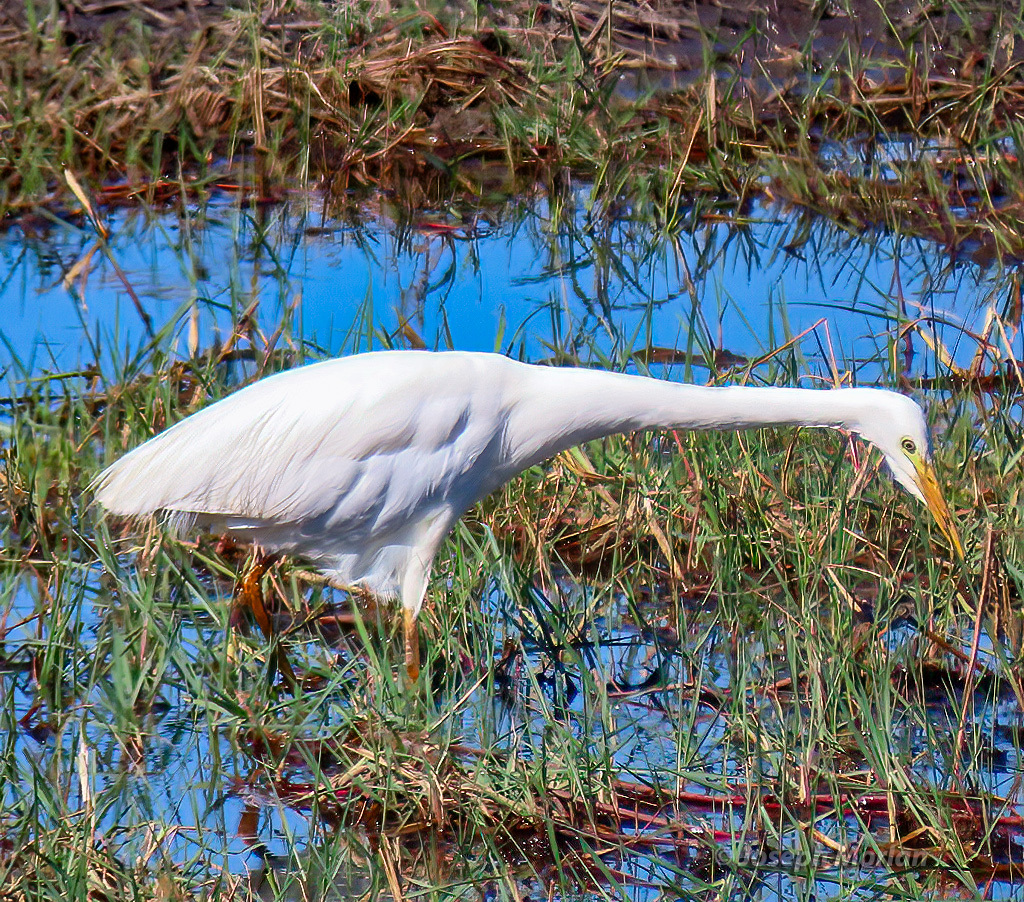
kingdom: Animalia
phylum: Chordata
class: Aves
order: Pelecaniformes
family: Ardeidae
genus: Egretta
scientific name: Egretta intermedia
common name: Intermediate egret
